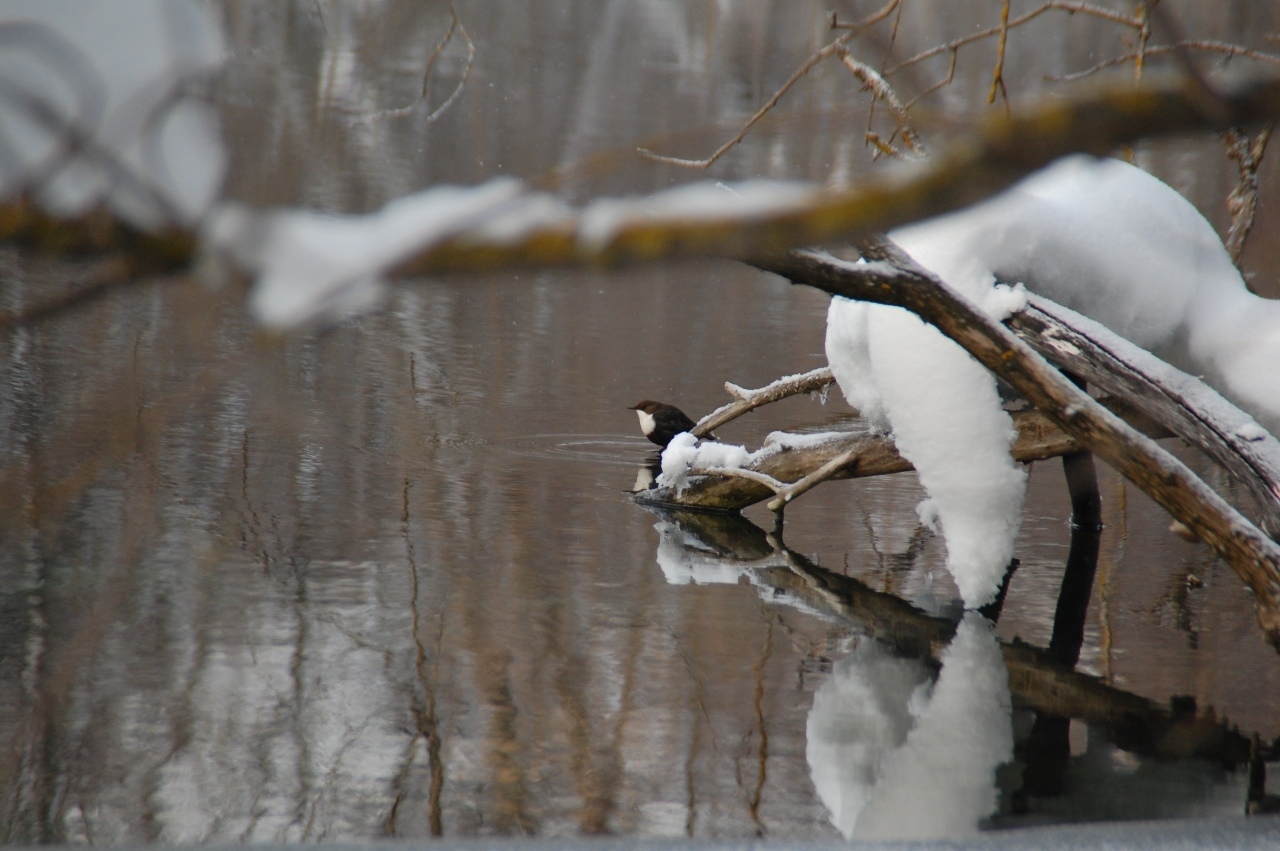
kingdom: Animalia
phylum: Chordata
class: Aves
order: Passeriformes
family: Cinclidae
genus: Cinclus
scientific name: Cinclus cinclus
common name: White-throated dipper
